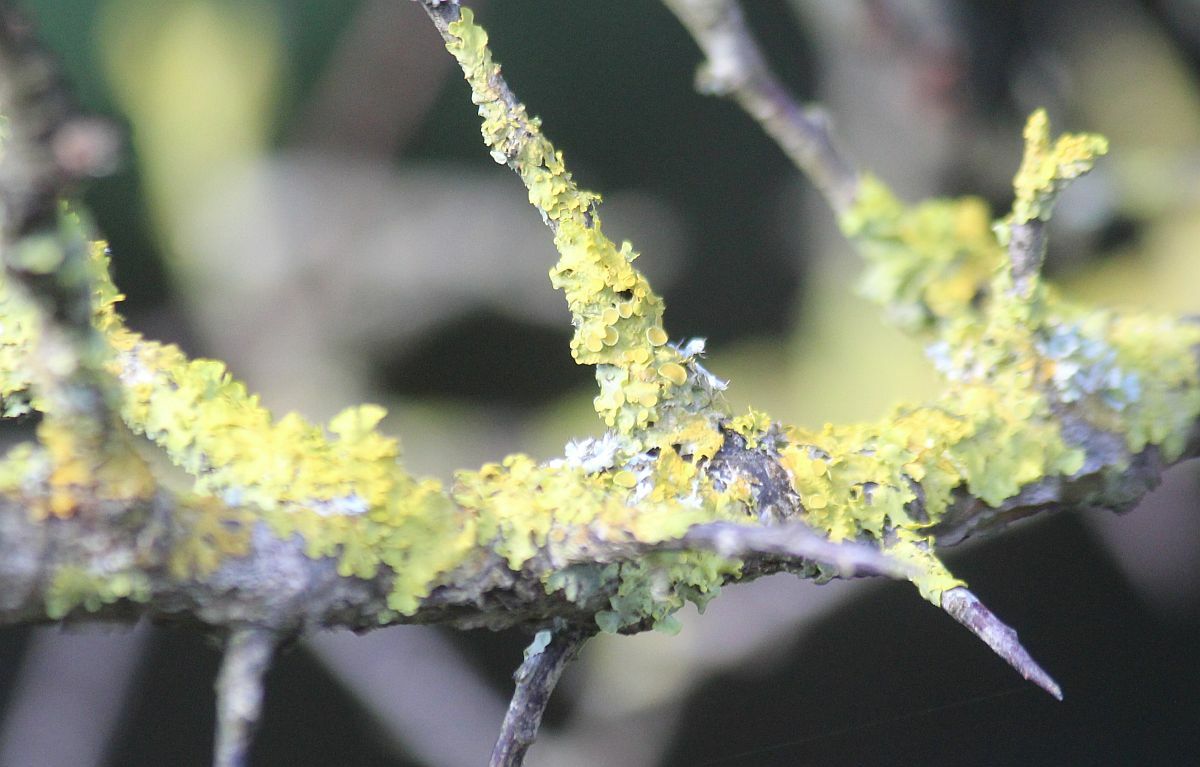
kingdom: Fungi
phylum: Ascomycota
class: Lecanoromycetes
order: Teloschistales
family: Teloschistaceae
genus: Xanthoria
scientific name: Xanthoria parietina
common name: Common orange lichen
